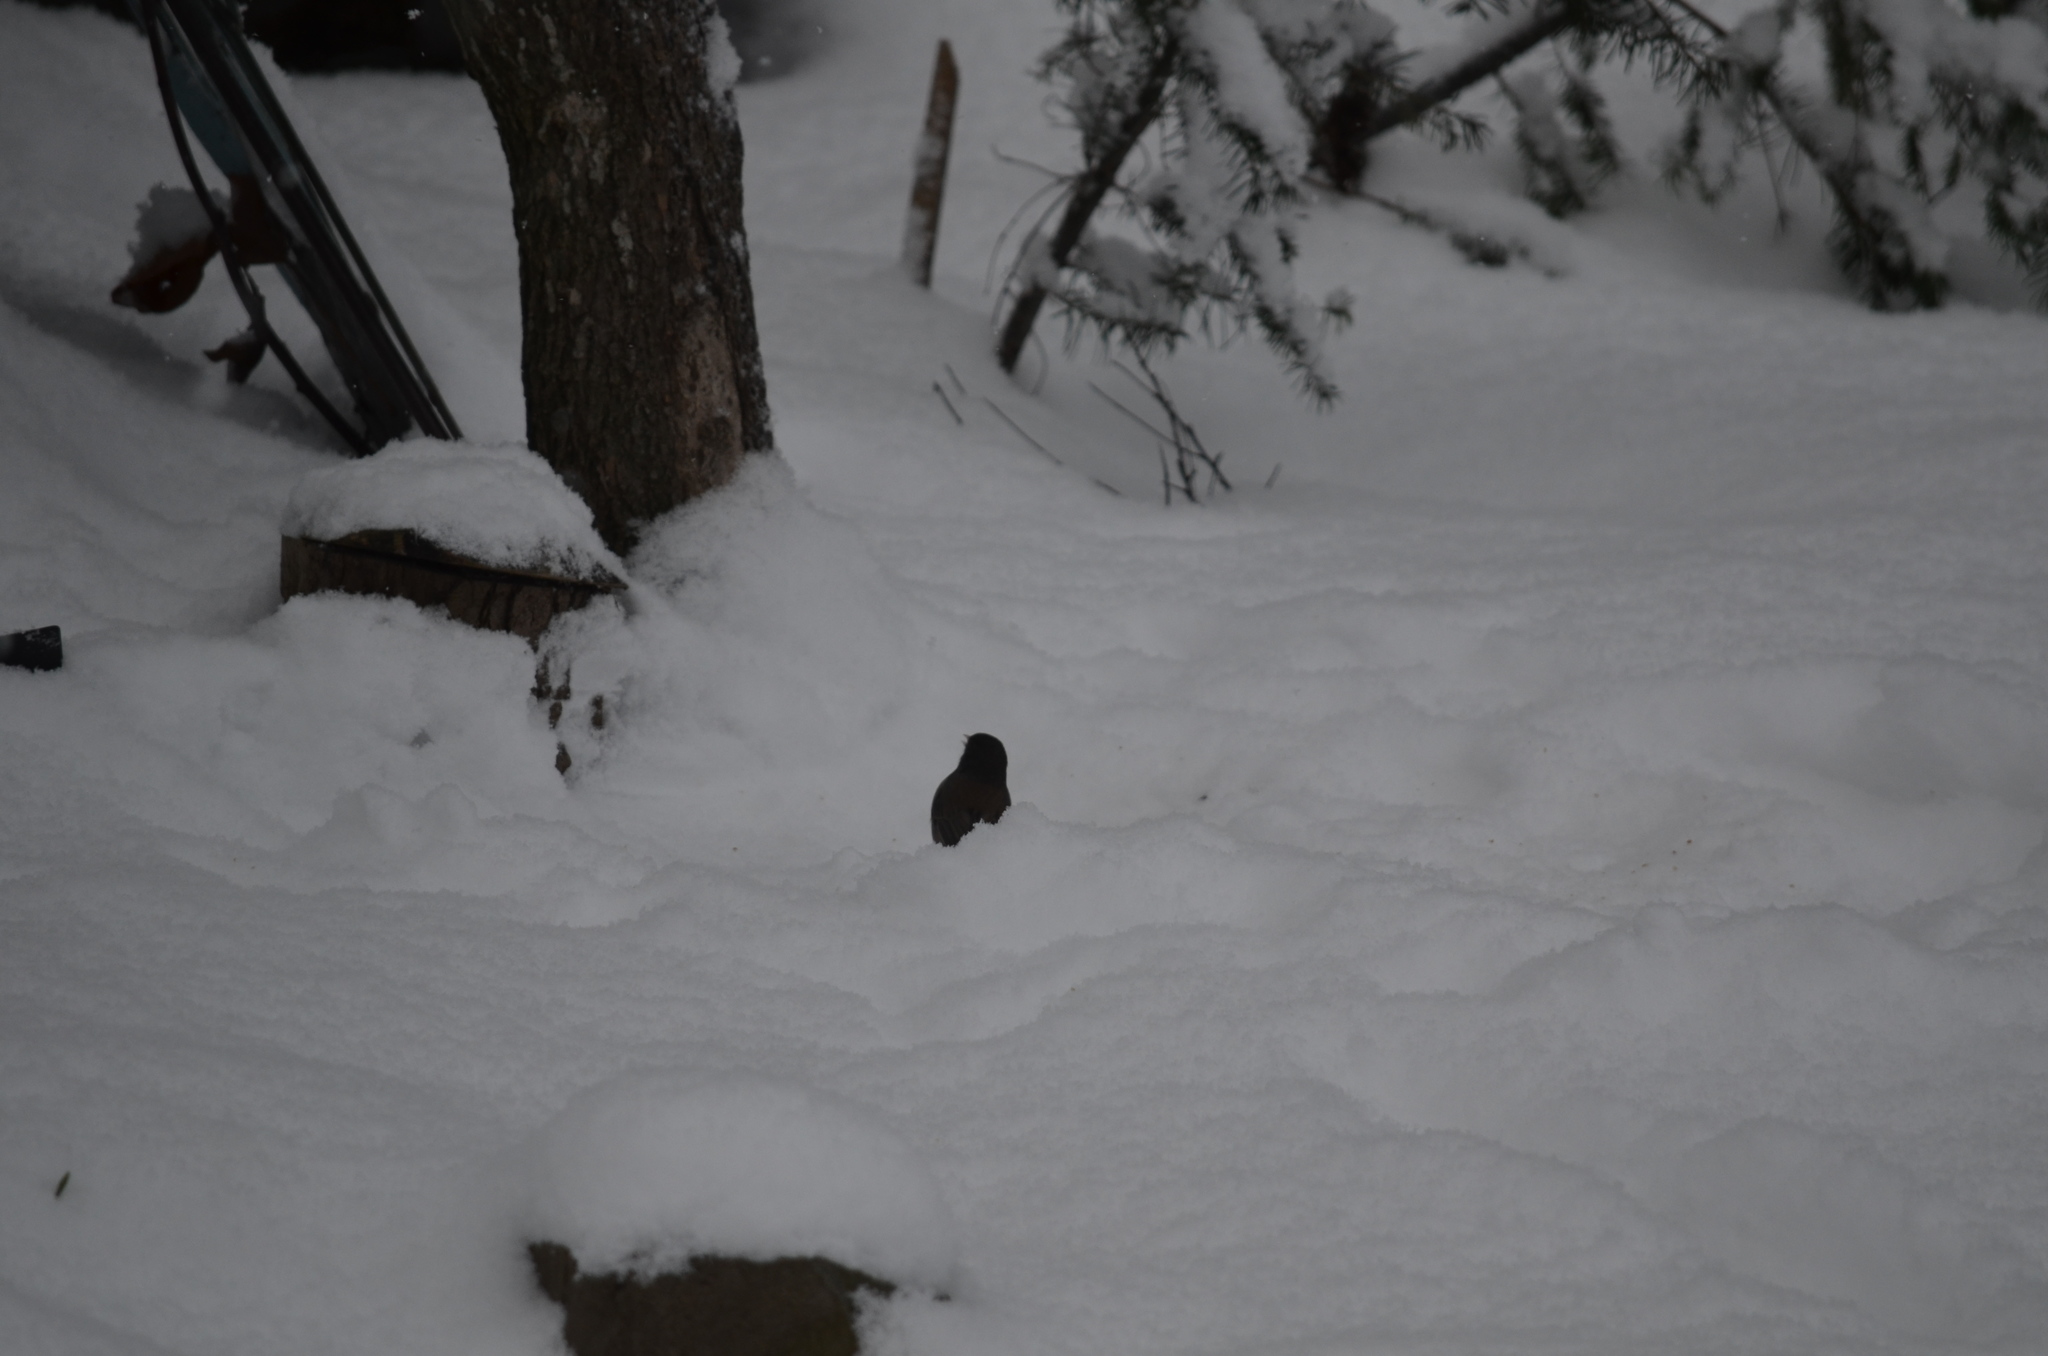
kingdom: Animalia
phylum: Chordata
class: Aves
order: Passeriformes
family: Passerellidae
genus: Junco
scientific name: Junco hyemalis
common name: Dark-eyed junco
